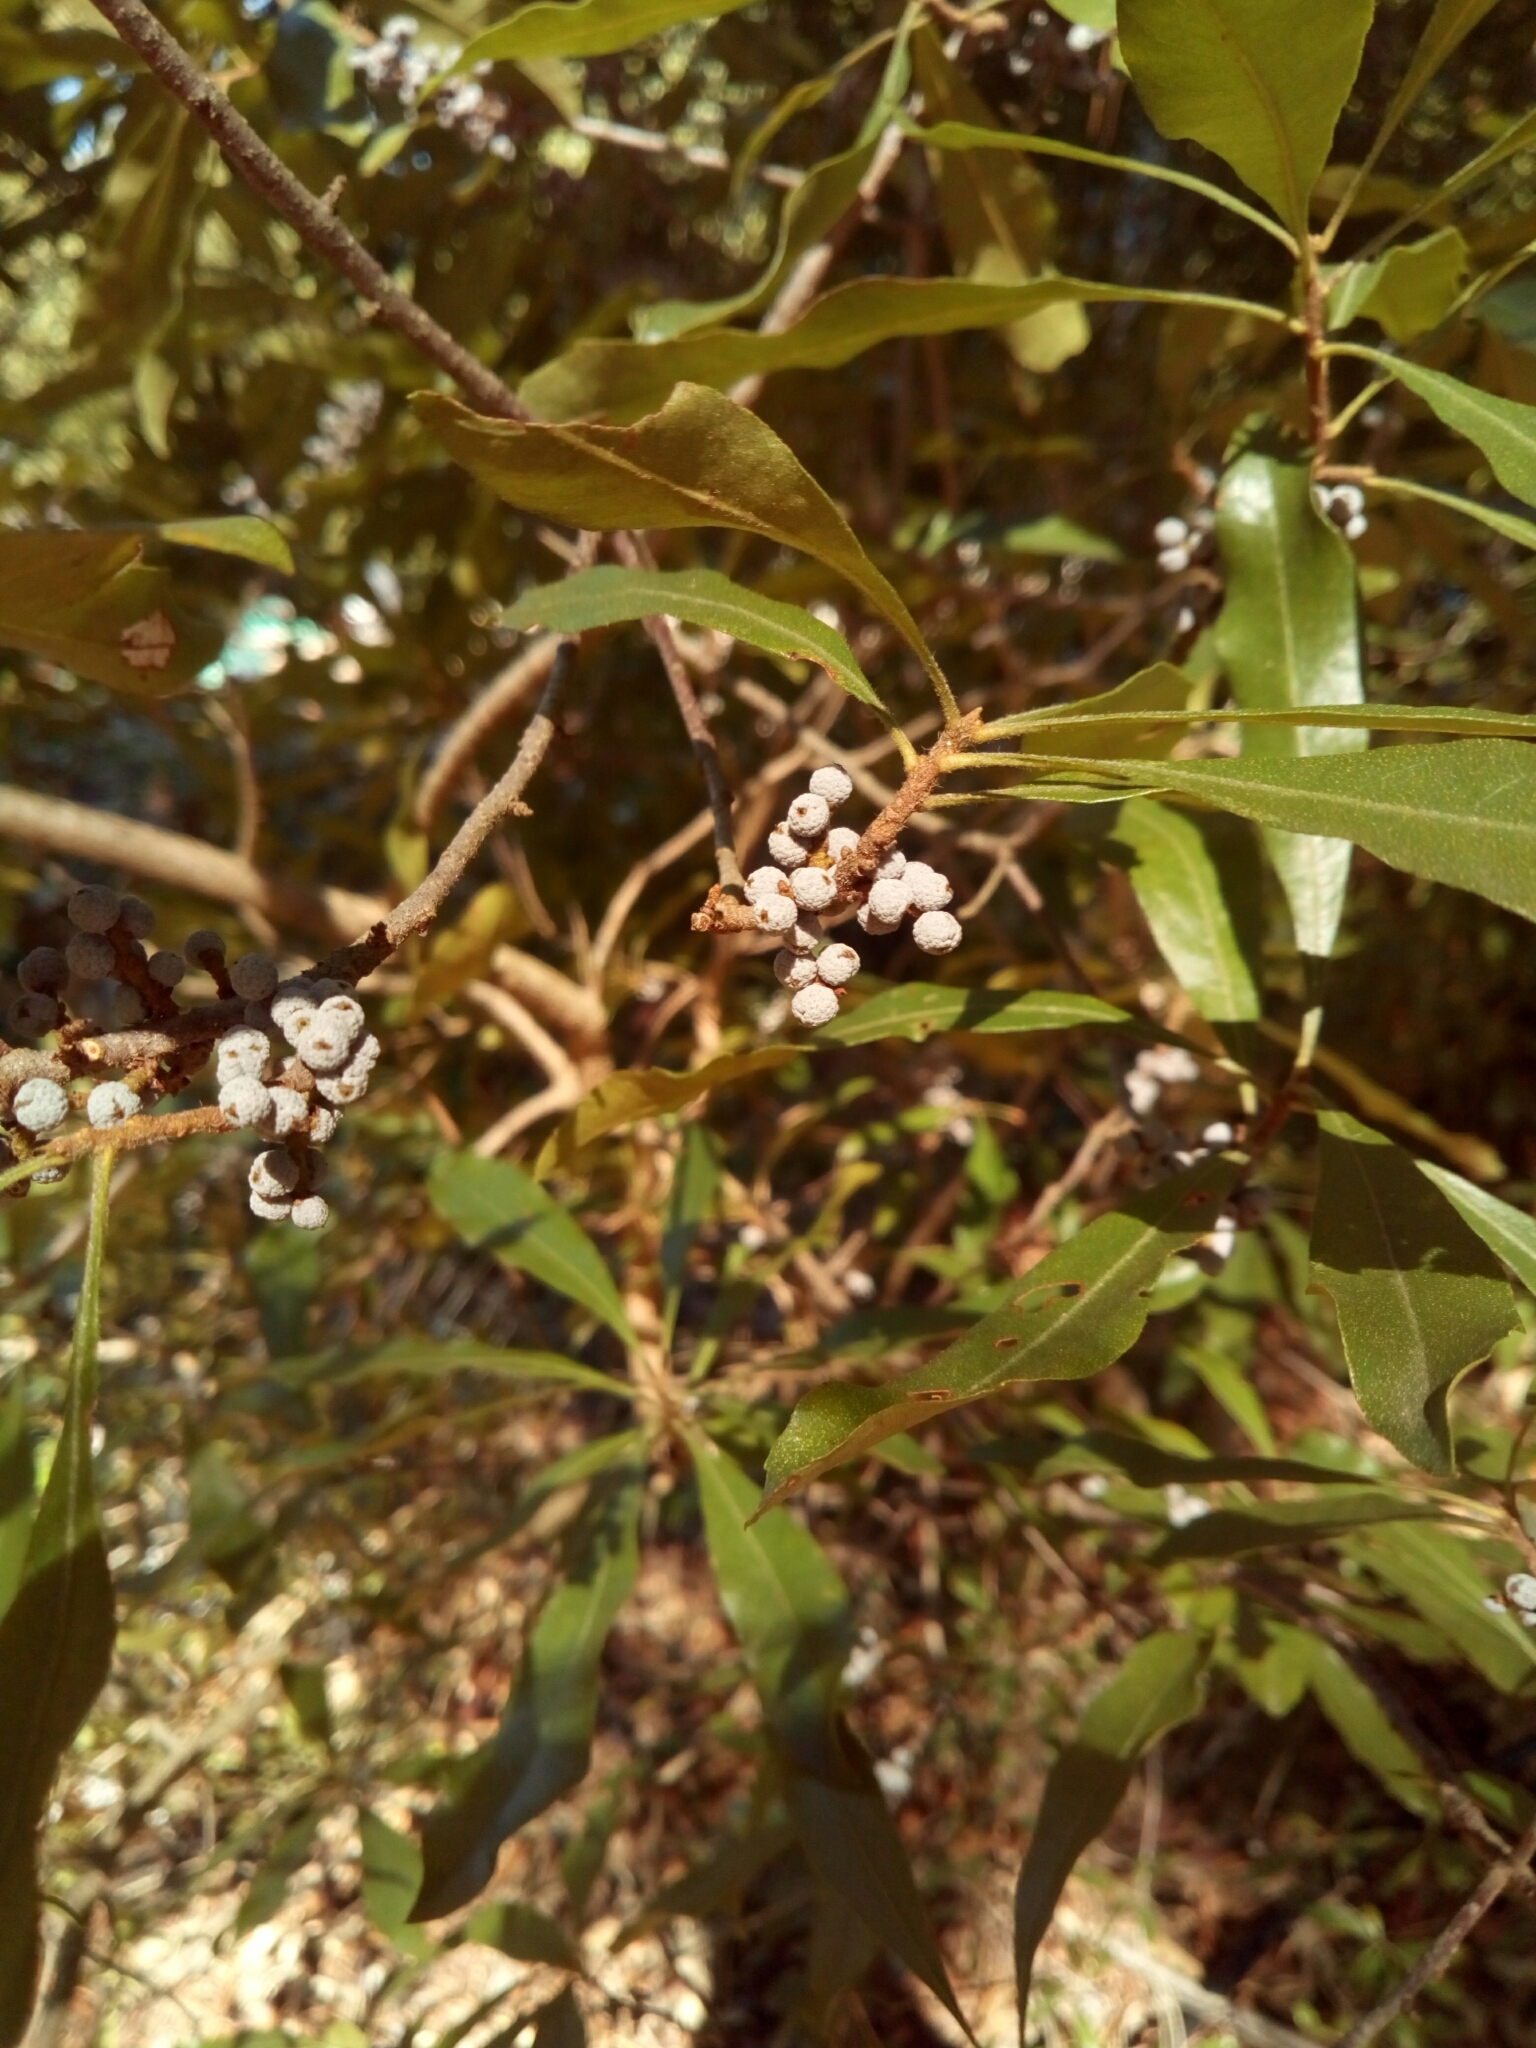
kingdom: Plantae
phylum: Tracheophyta
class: Magnoliopsida
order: Fagales
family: Myricaceae
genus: Morella
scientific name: Morella cerifera
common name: Wax myrtle
